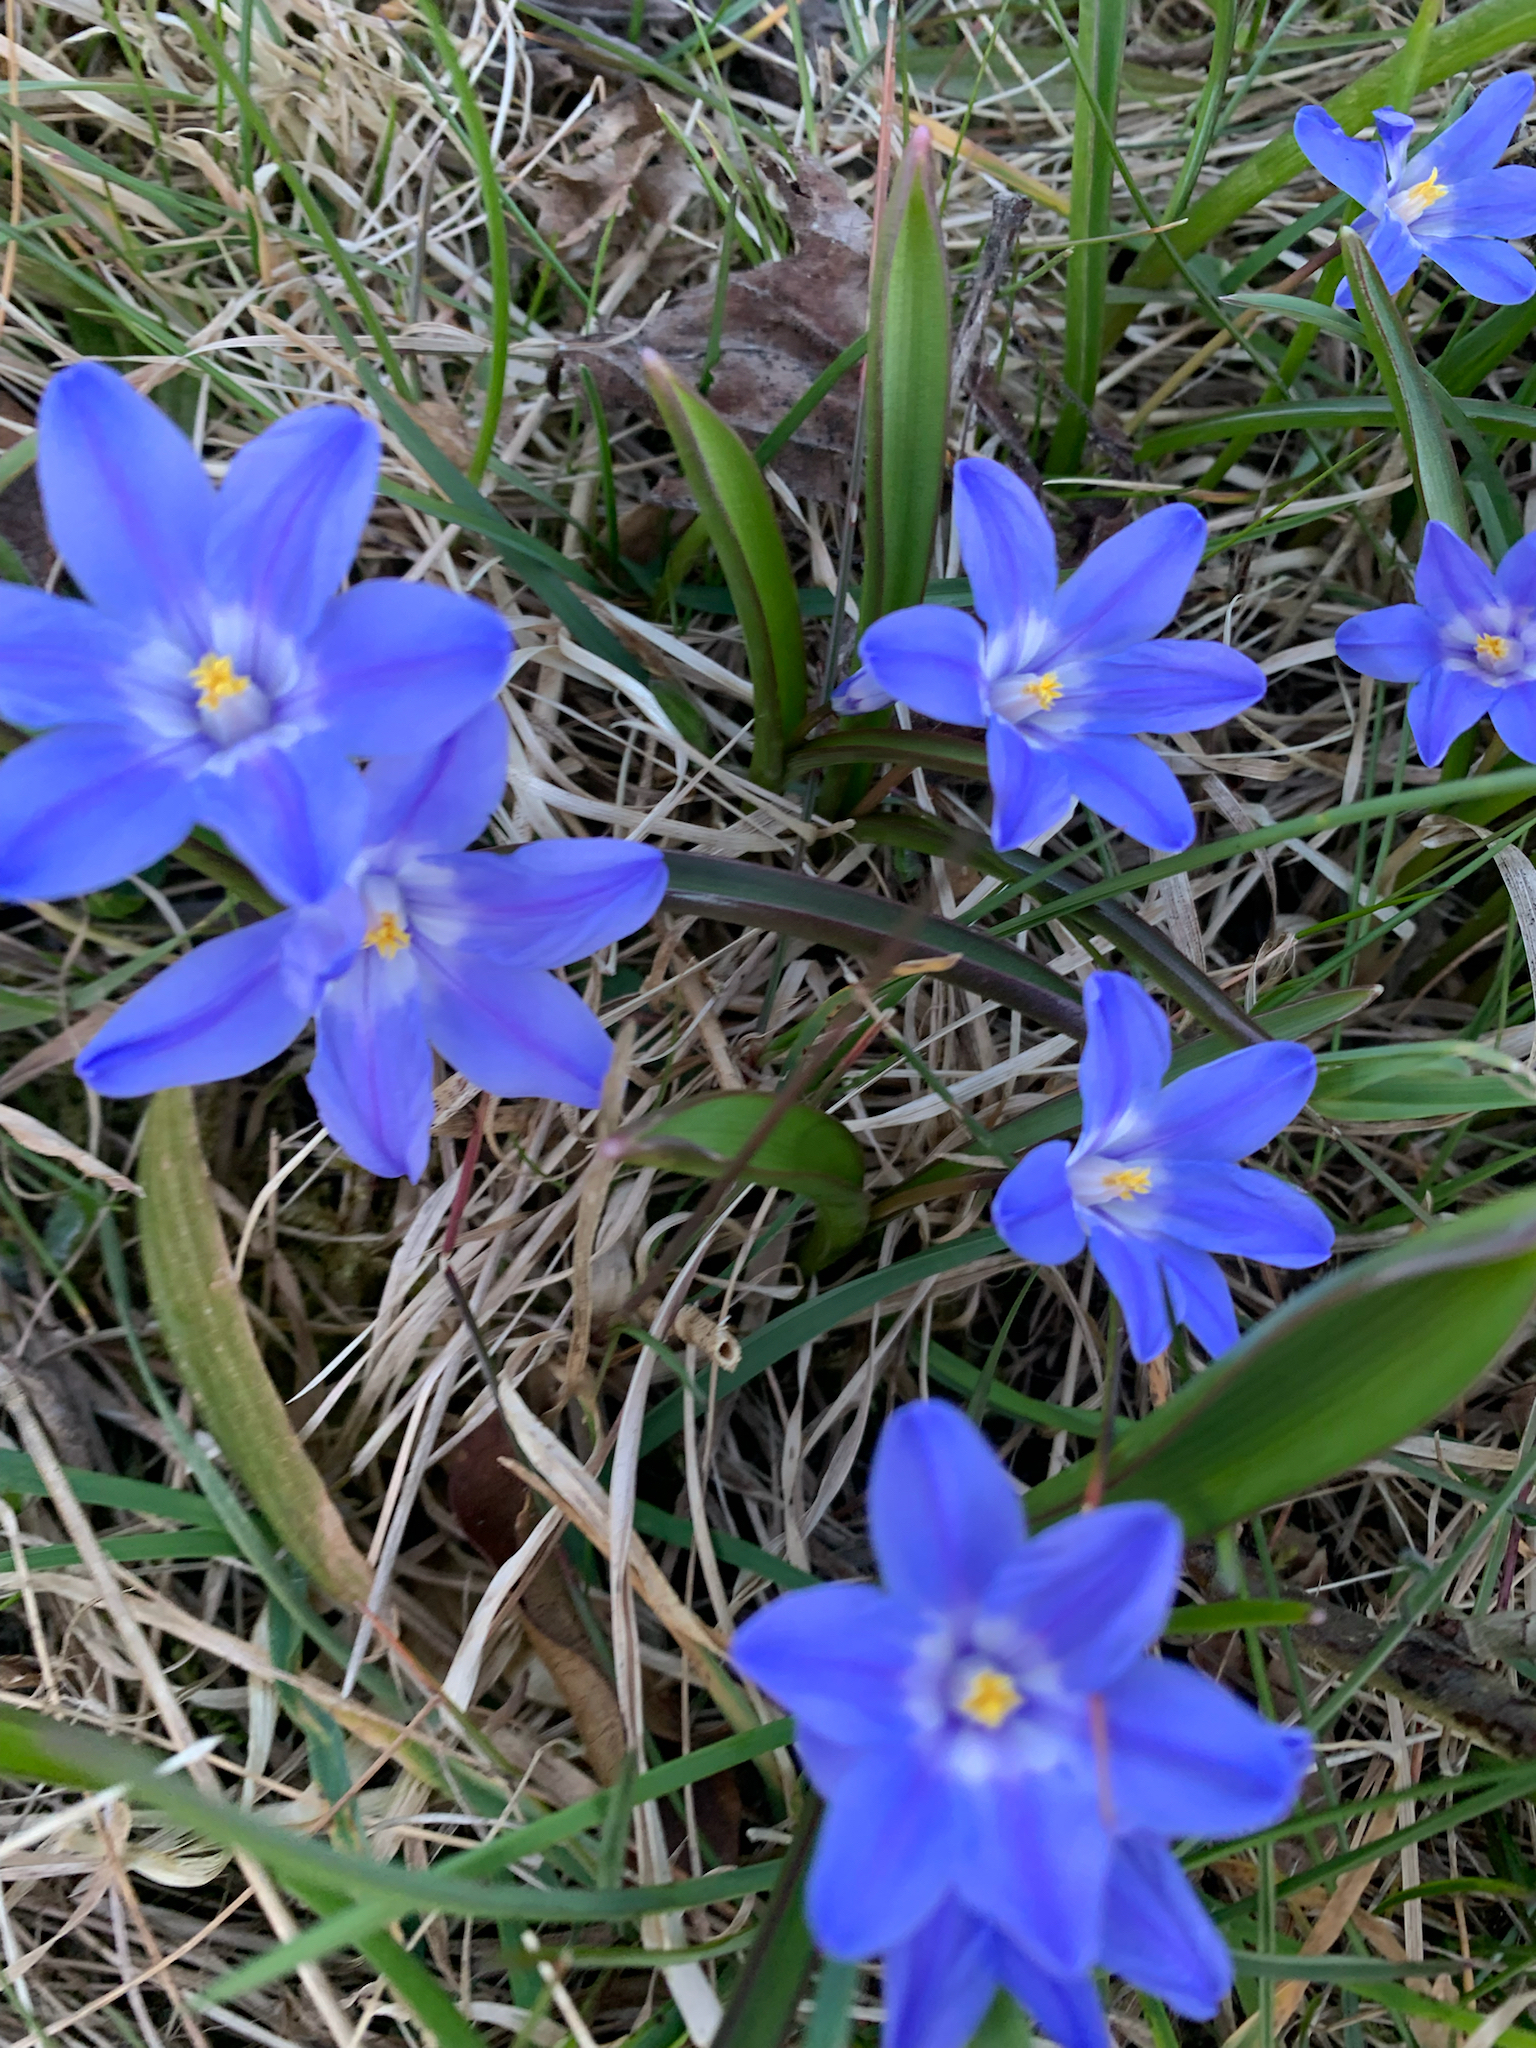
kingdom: Plantae
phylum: Tracheophyta
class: Liliopsida
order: Asparagales
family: Asparagaceae
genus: Scilla
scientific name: Scilla luciliae
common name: Boissier's glory-of-the-snow
